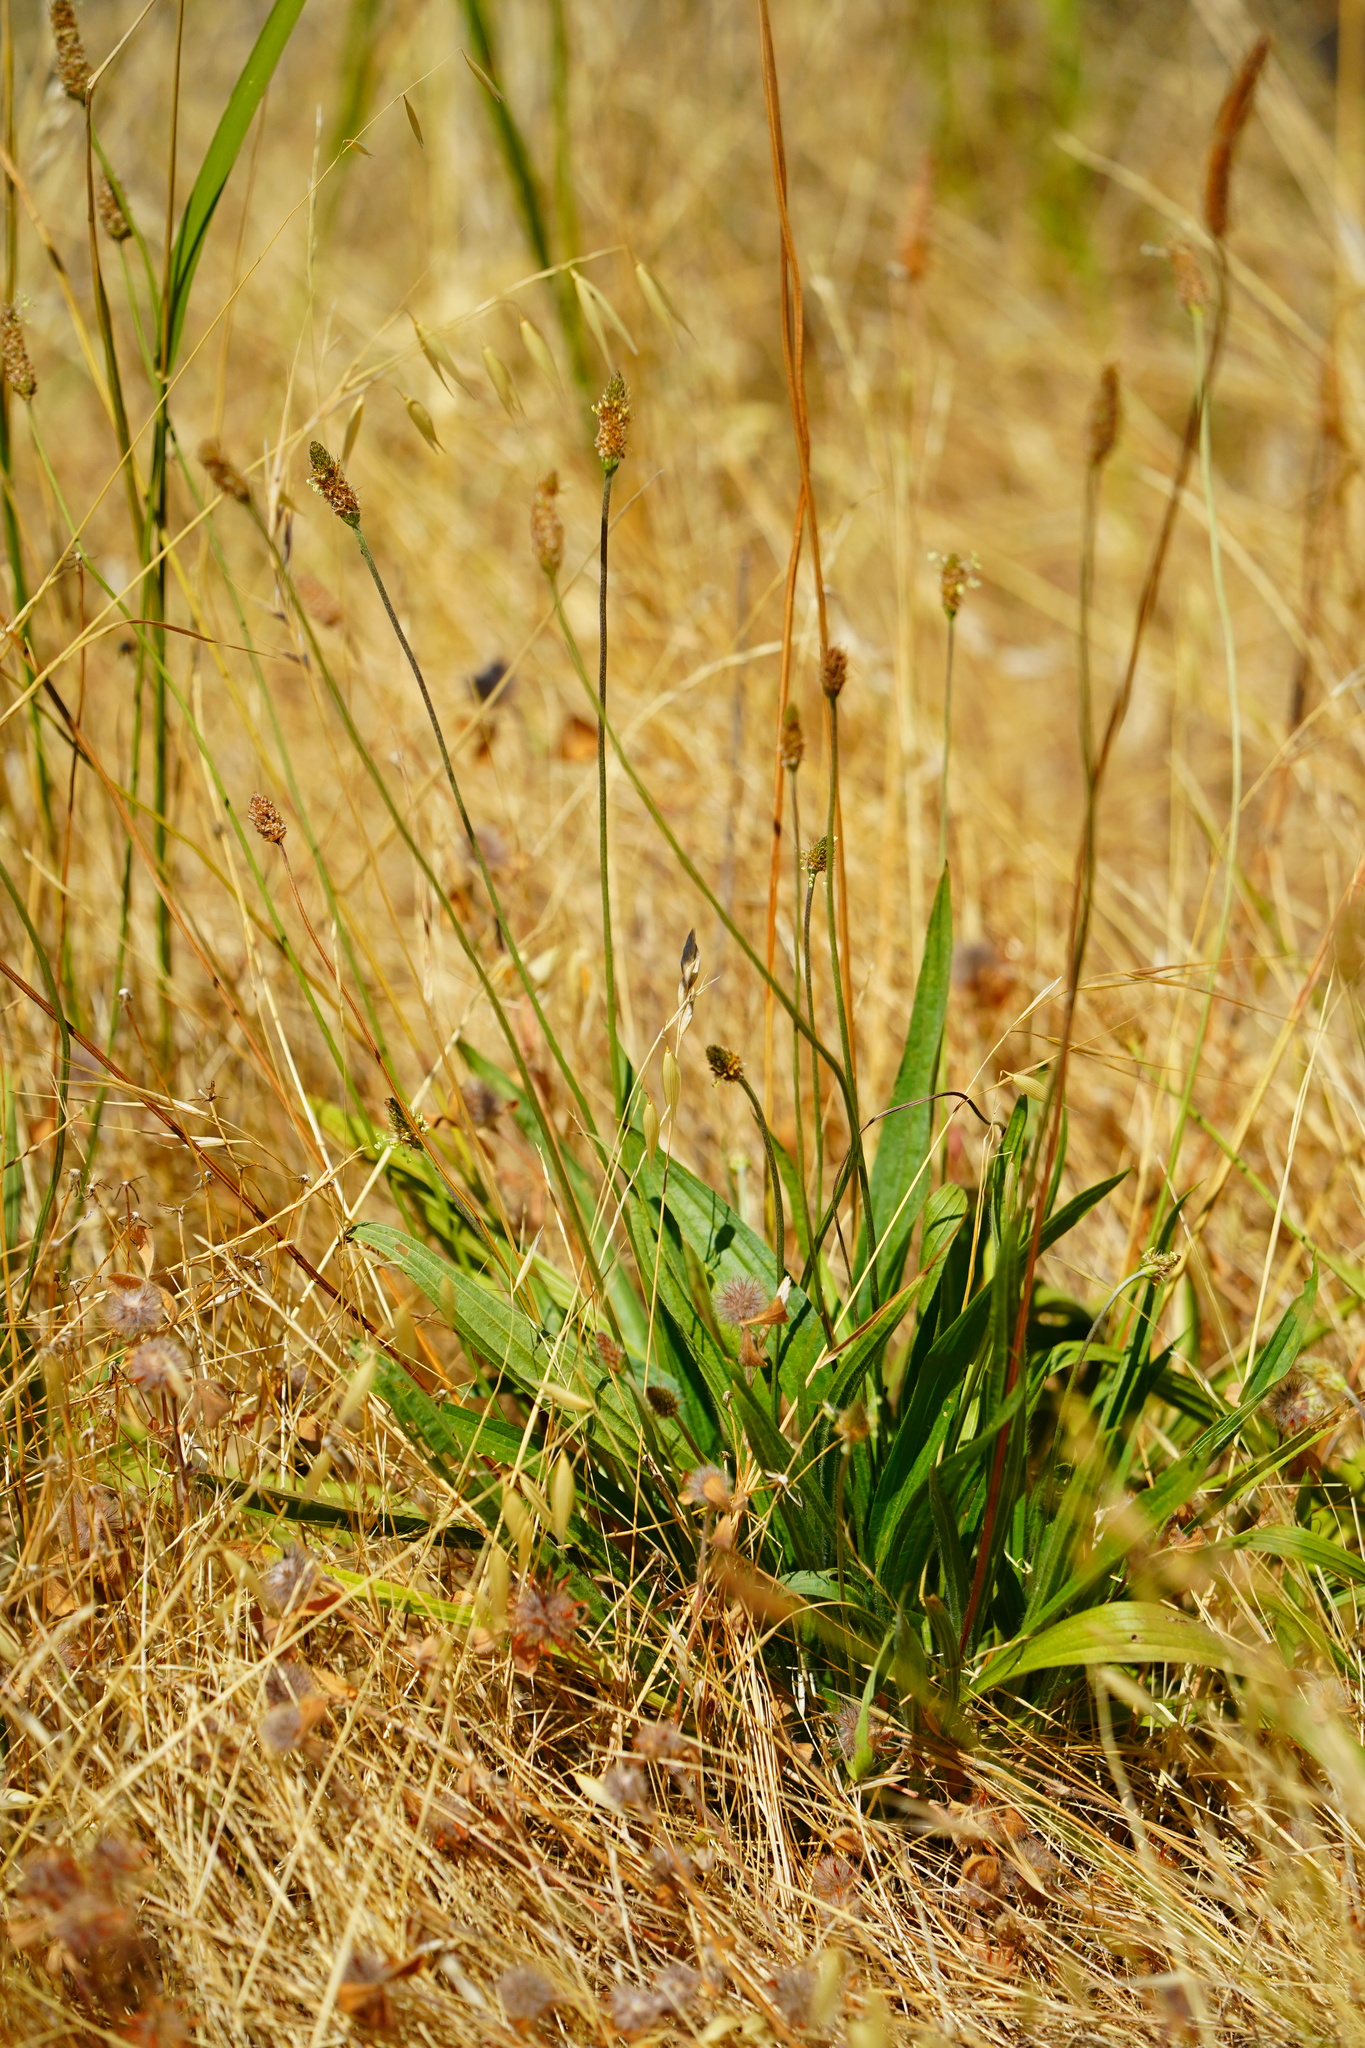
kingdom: Plantae
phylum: Tracheophyta
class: Magnoliopsida
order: Lamiales
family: Plantaginaceae
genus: Plantago
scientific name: Plantago lanceolata
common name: Ribwort plantain
